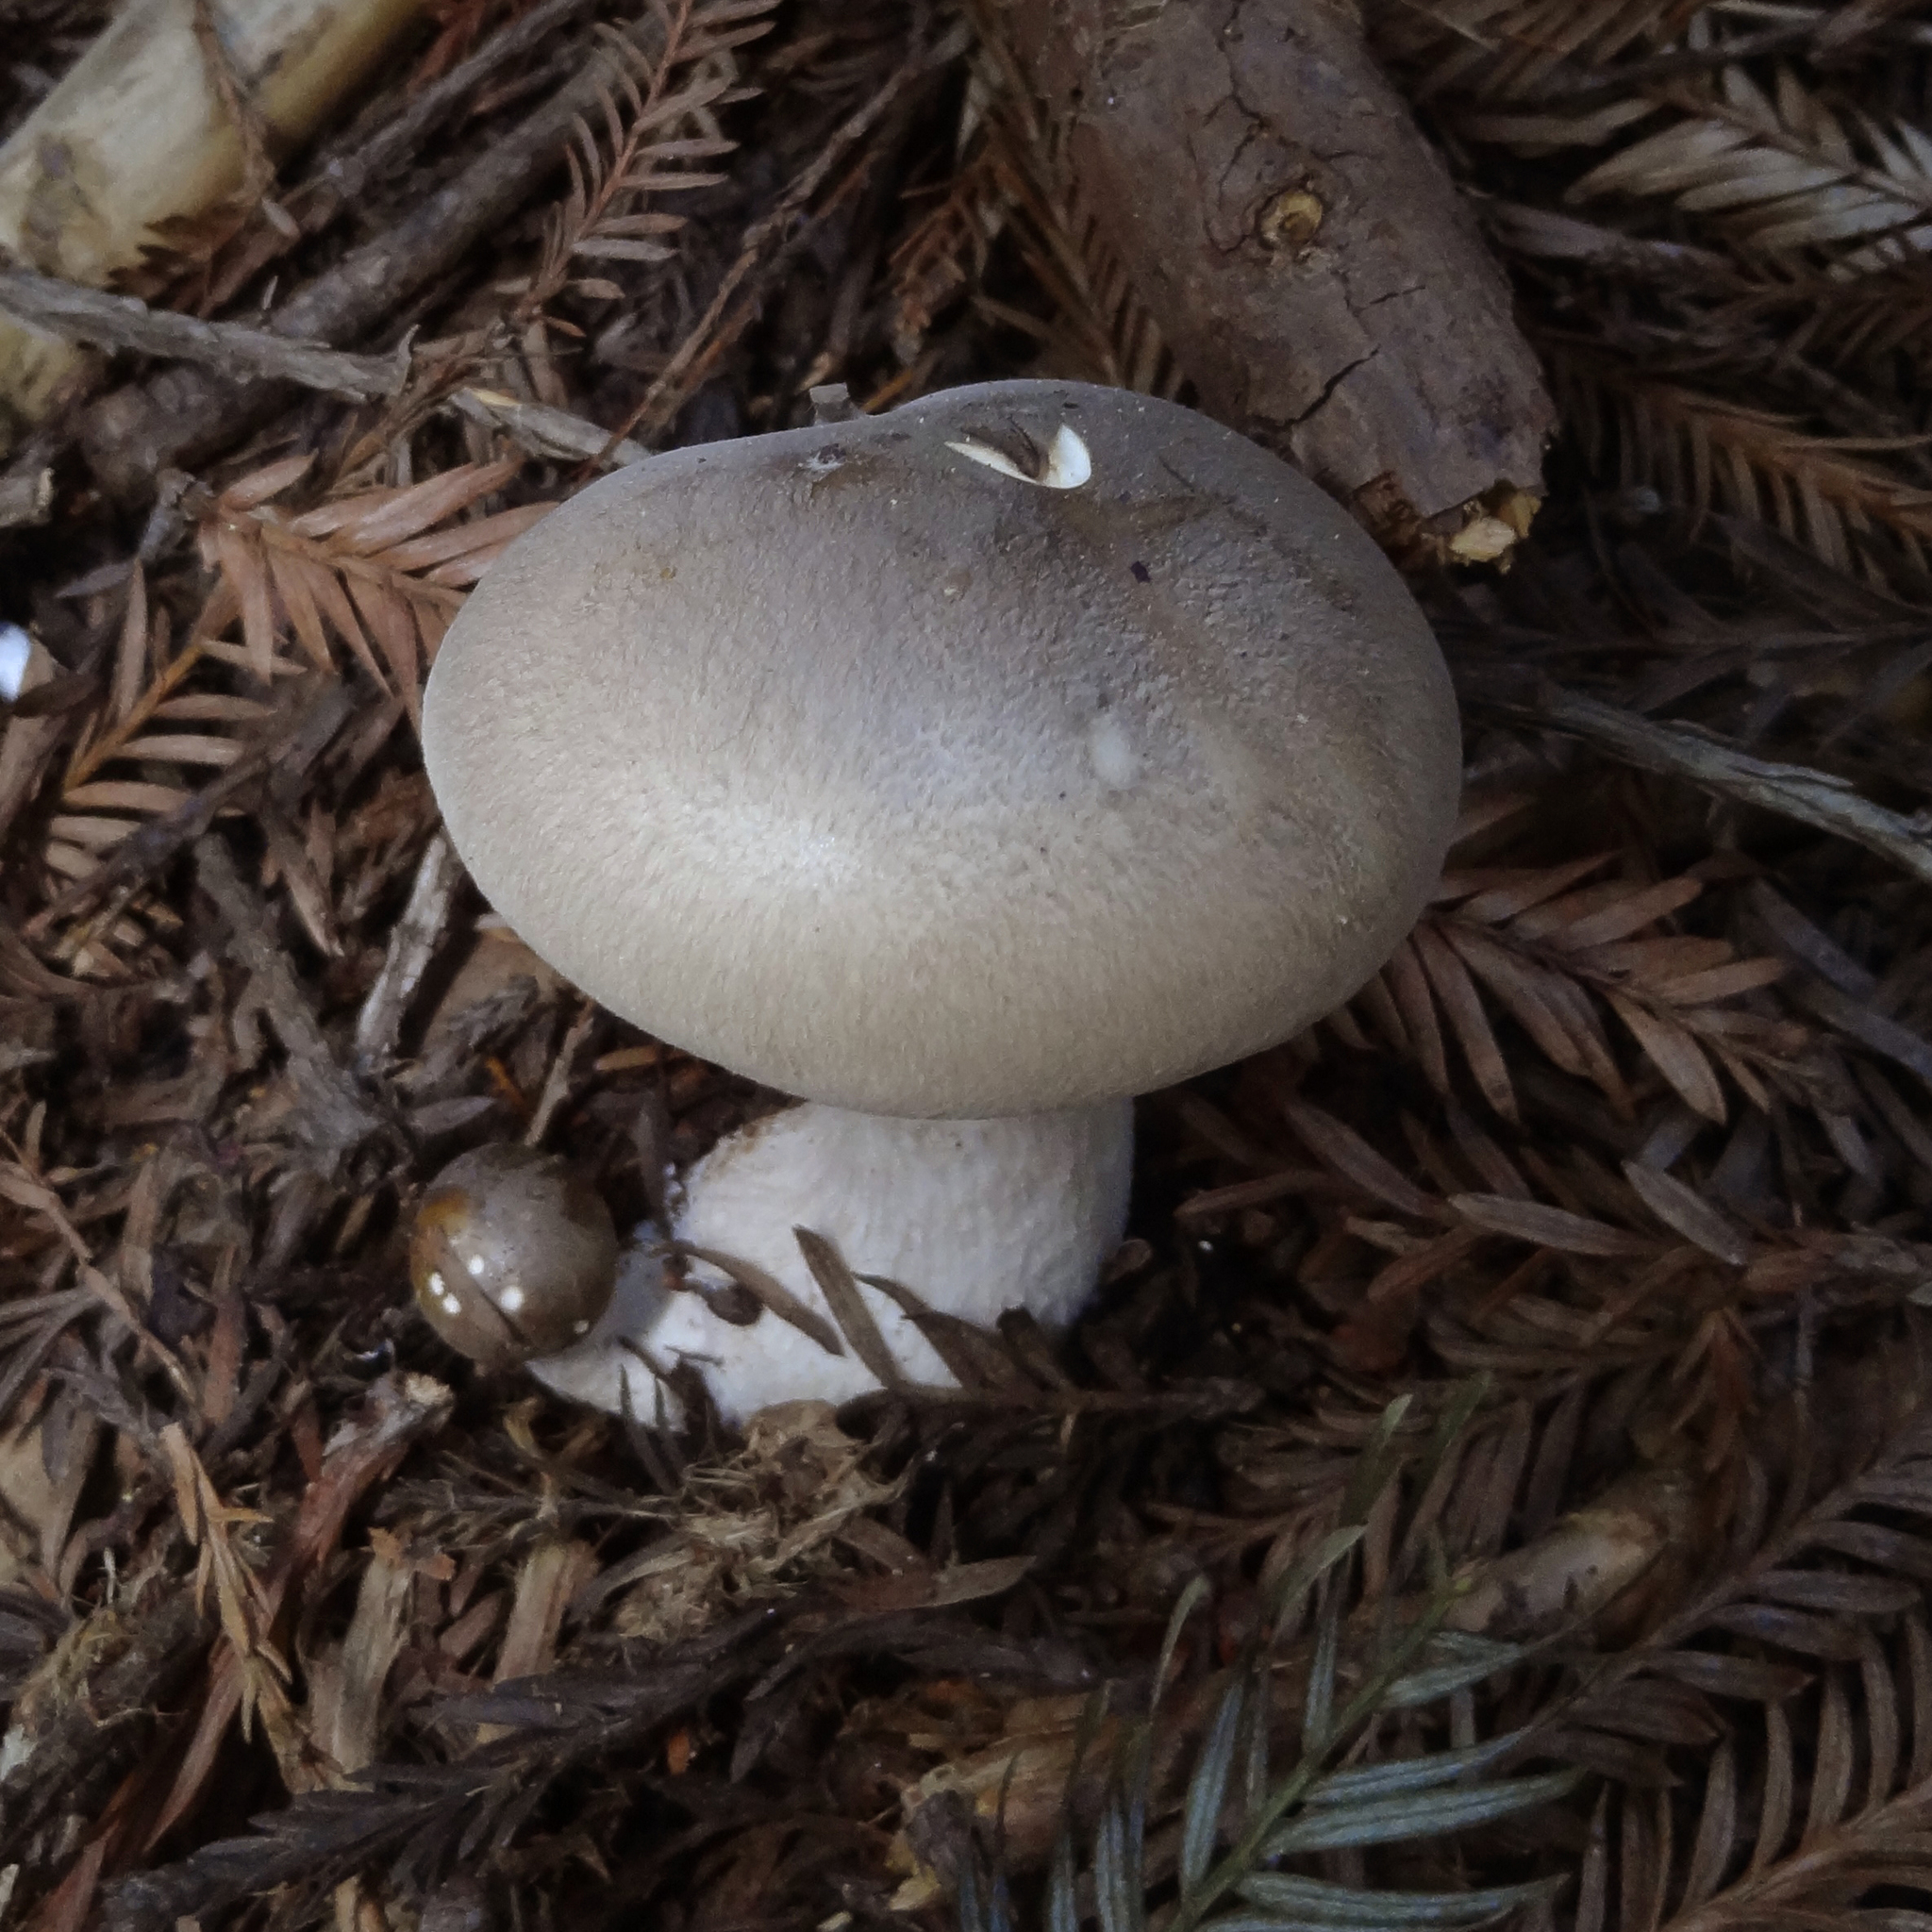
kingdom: Fungi
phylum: Basidiomycota
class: Agaricomycetes
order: Agaricales
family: Tricholomataceae
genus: Clitocybe
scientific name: Clitocybe nebularis
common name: Clouded agaric
